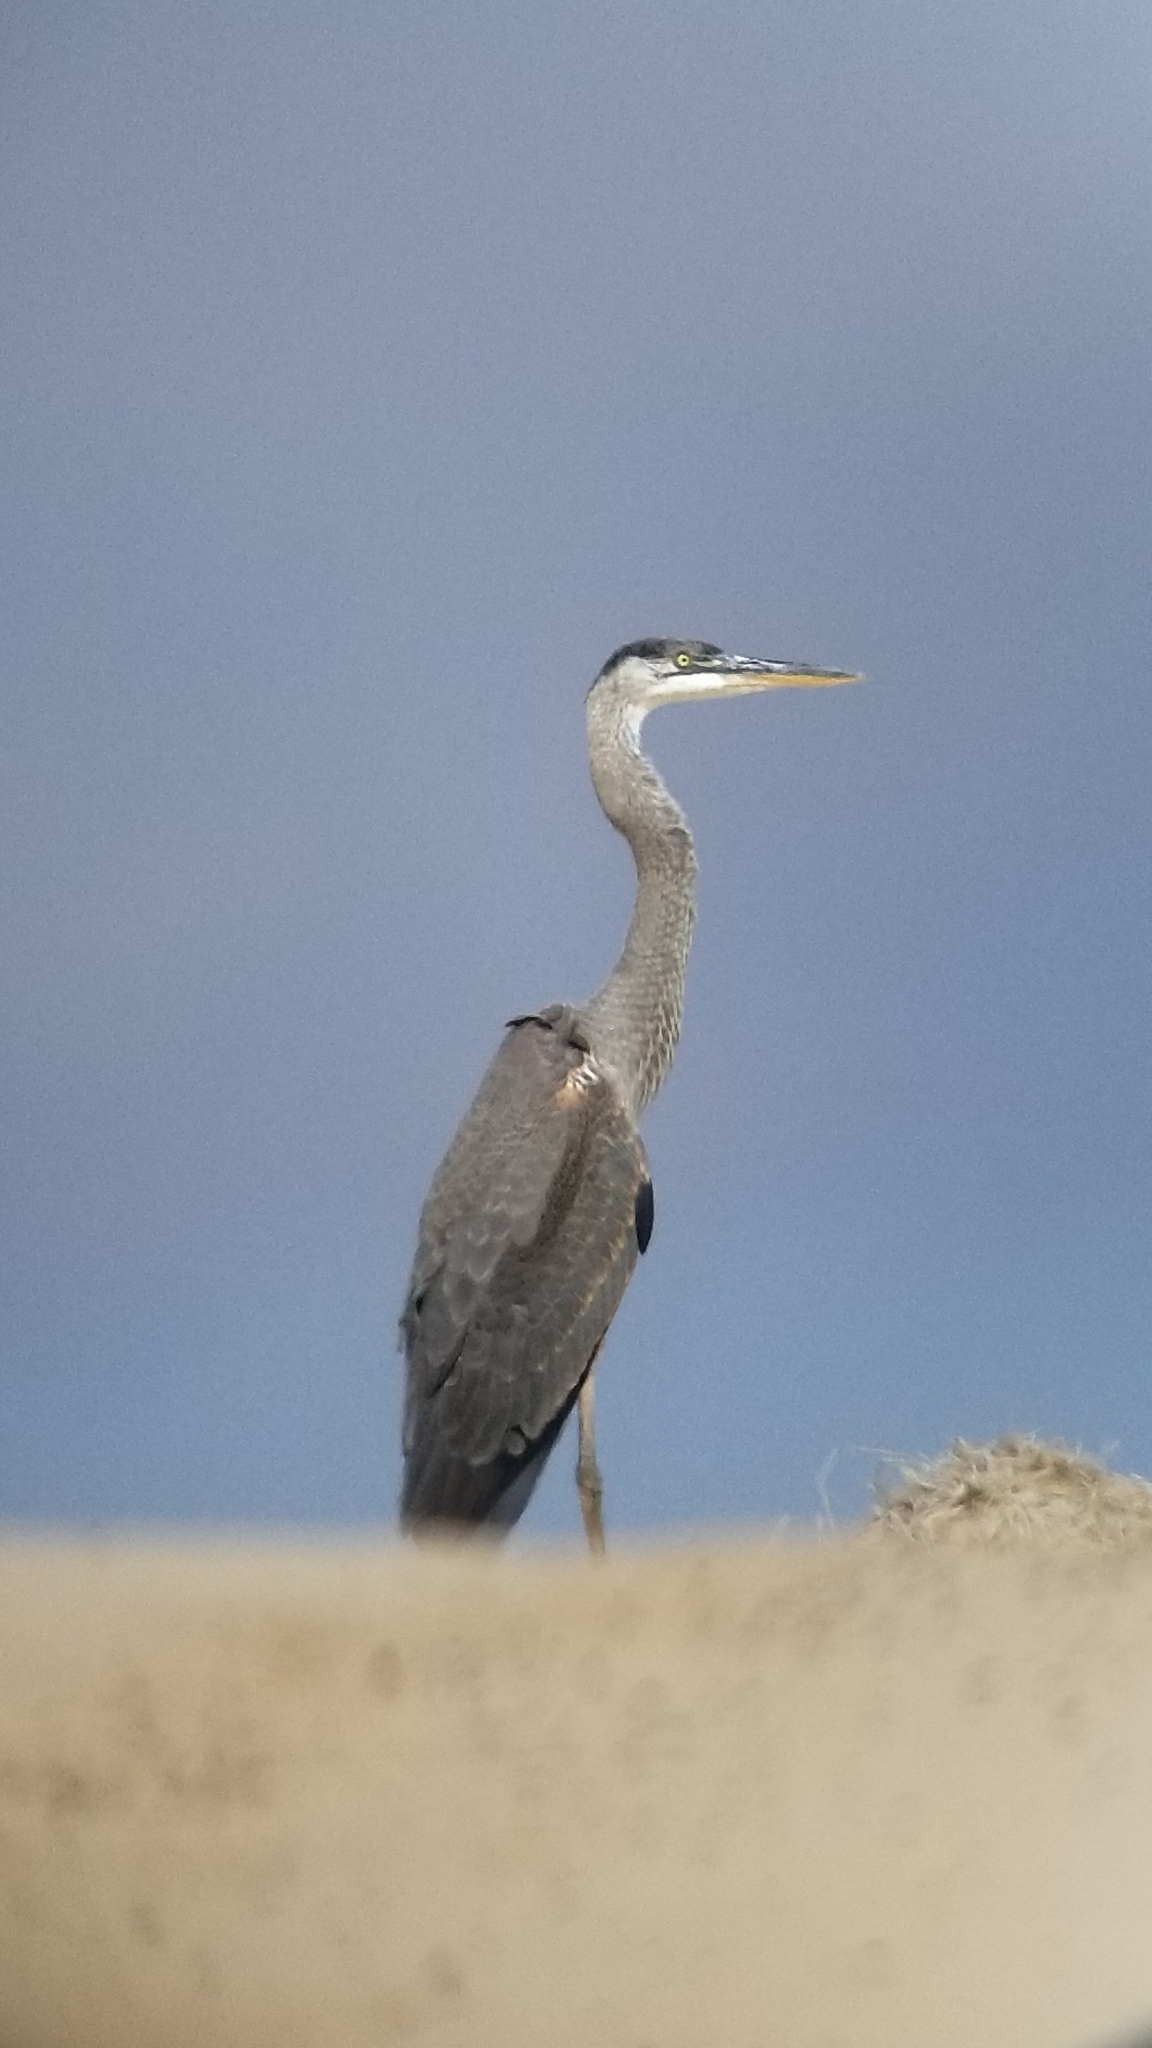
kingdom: Animalia
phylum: Chordata
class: Aves
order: Pelecaniformes
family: Ardeidae
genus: Ardea
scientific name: Ardea herodias
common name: Great blue heron
